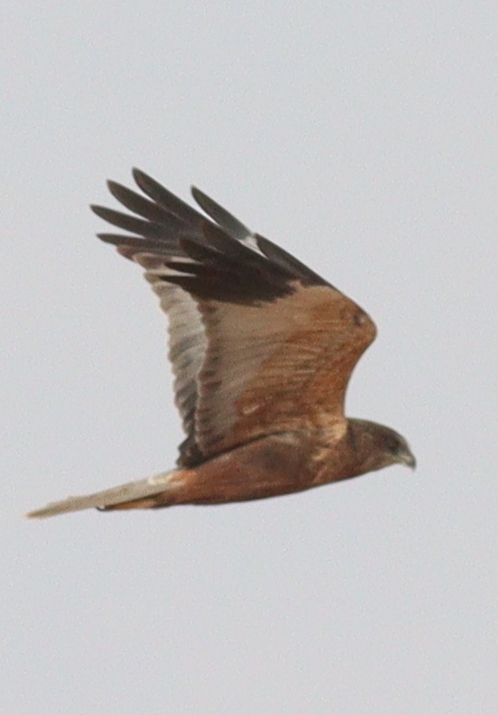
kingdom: Animalia
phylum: Chordata
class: Aves
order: Accipitriformes
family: Accipitridae
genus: Circus
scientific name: Circus aeruginosus
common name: Western marsh harrier
